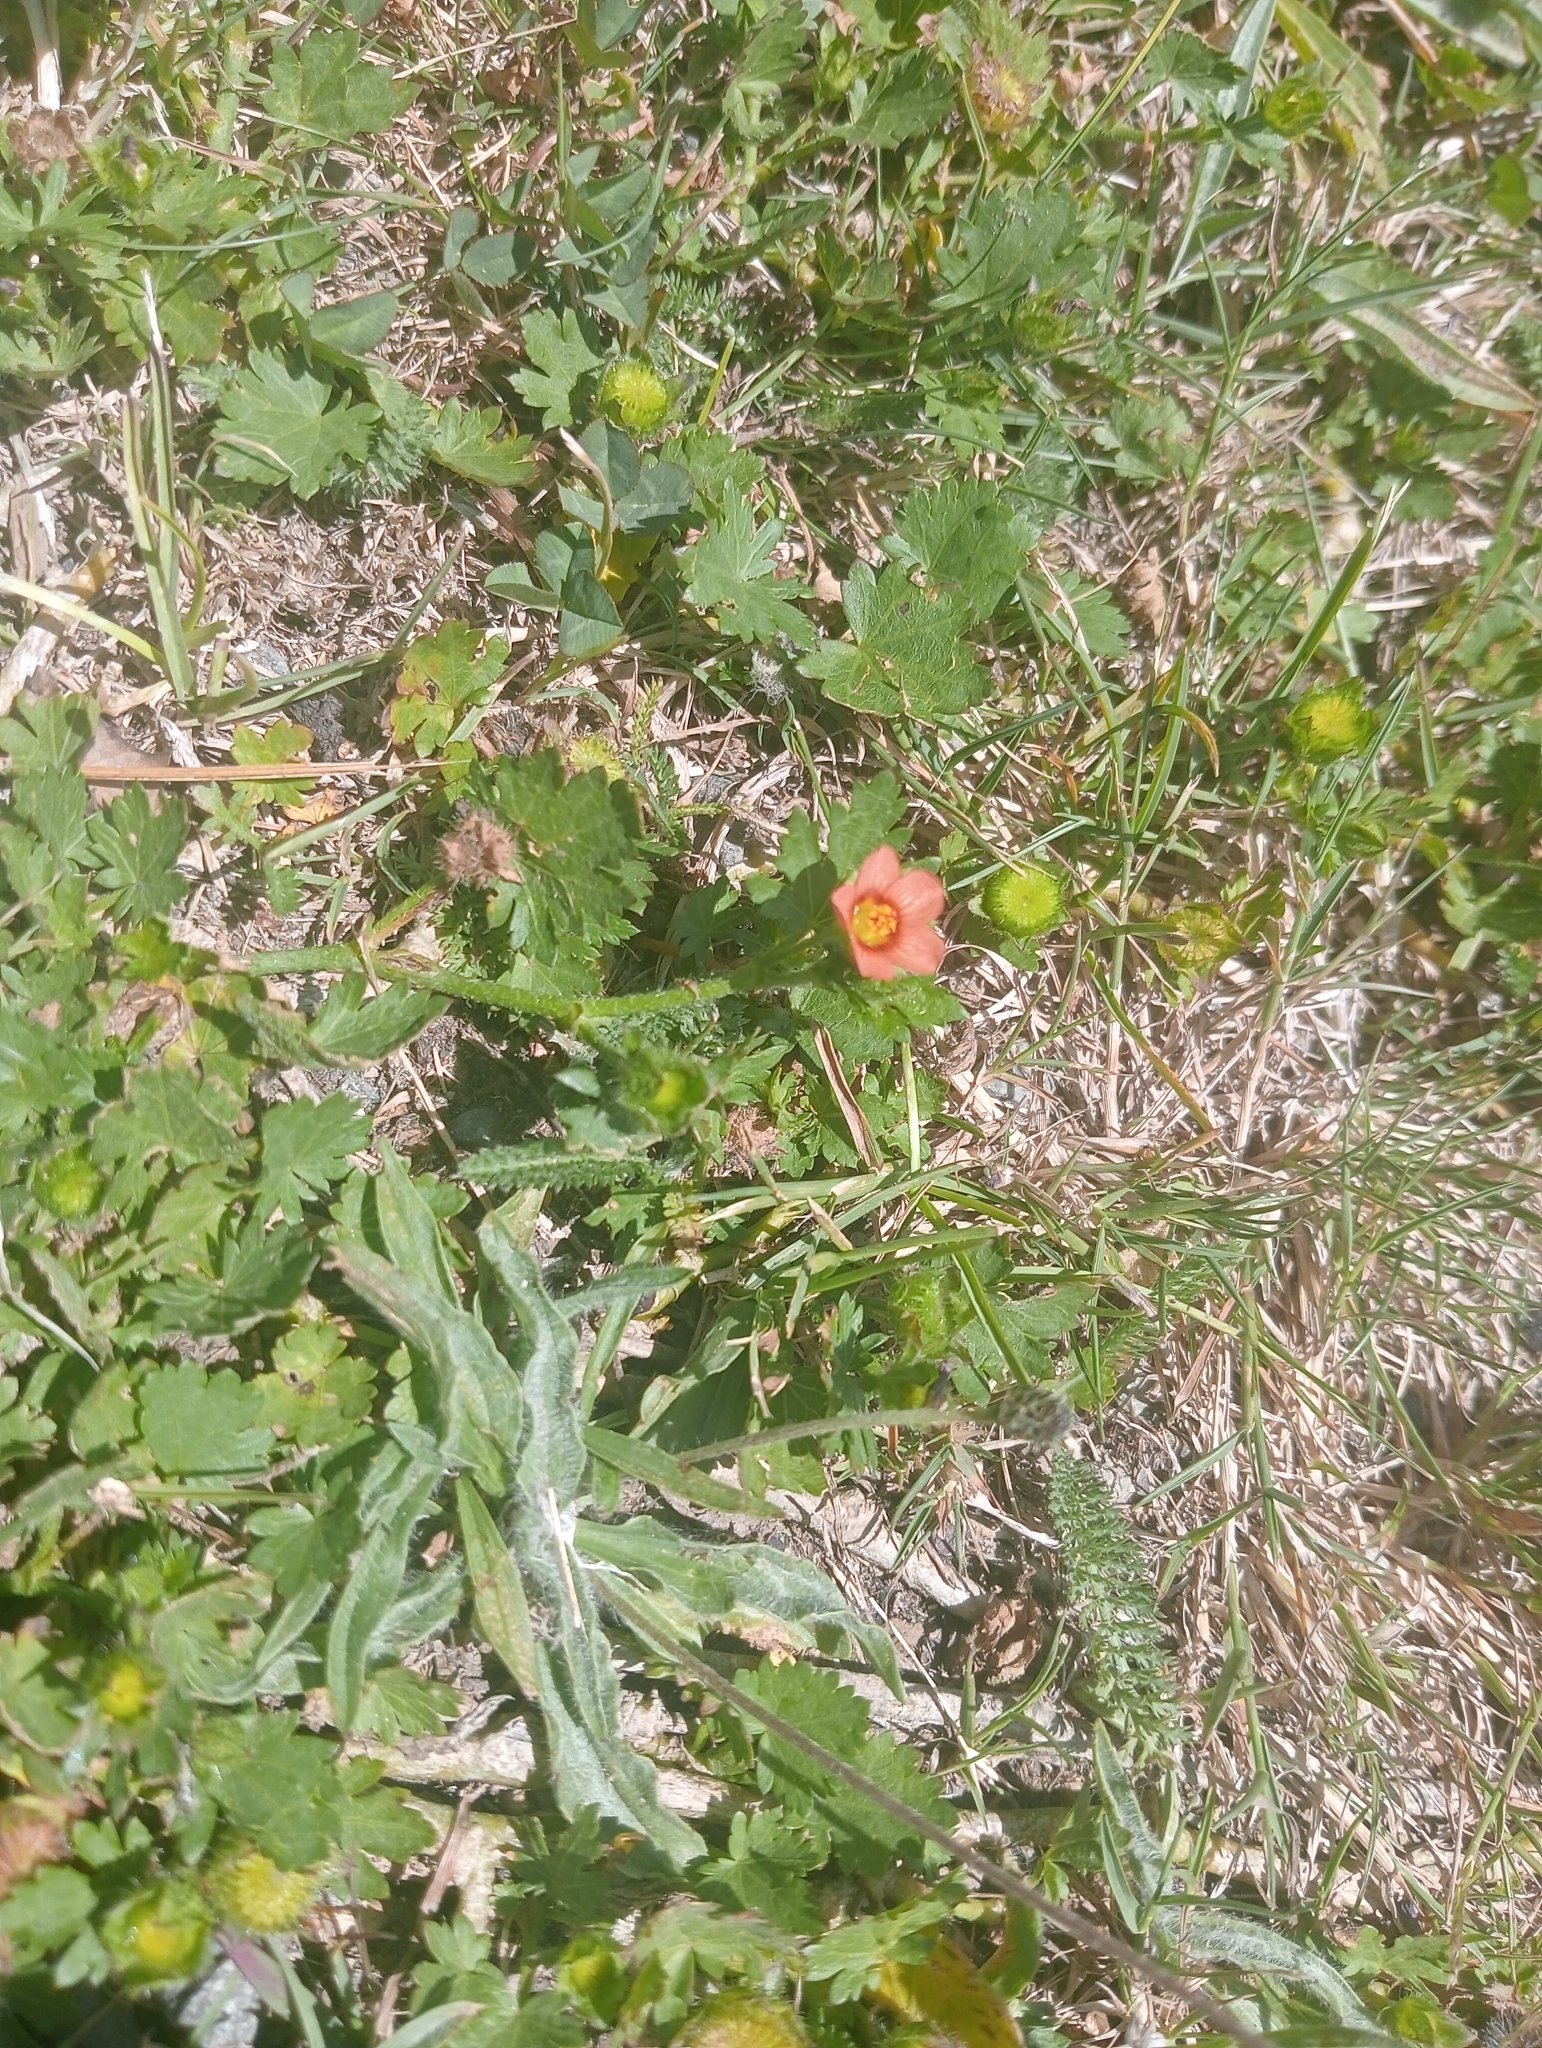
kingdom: Plantae
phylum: Tracheophyta
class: Magnoliopsida
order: Malvales
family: Malvaceae
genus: Modiola
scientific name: Modiola caroliniana
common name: Carolina bristlemallow
